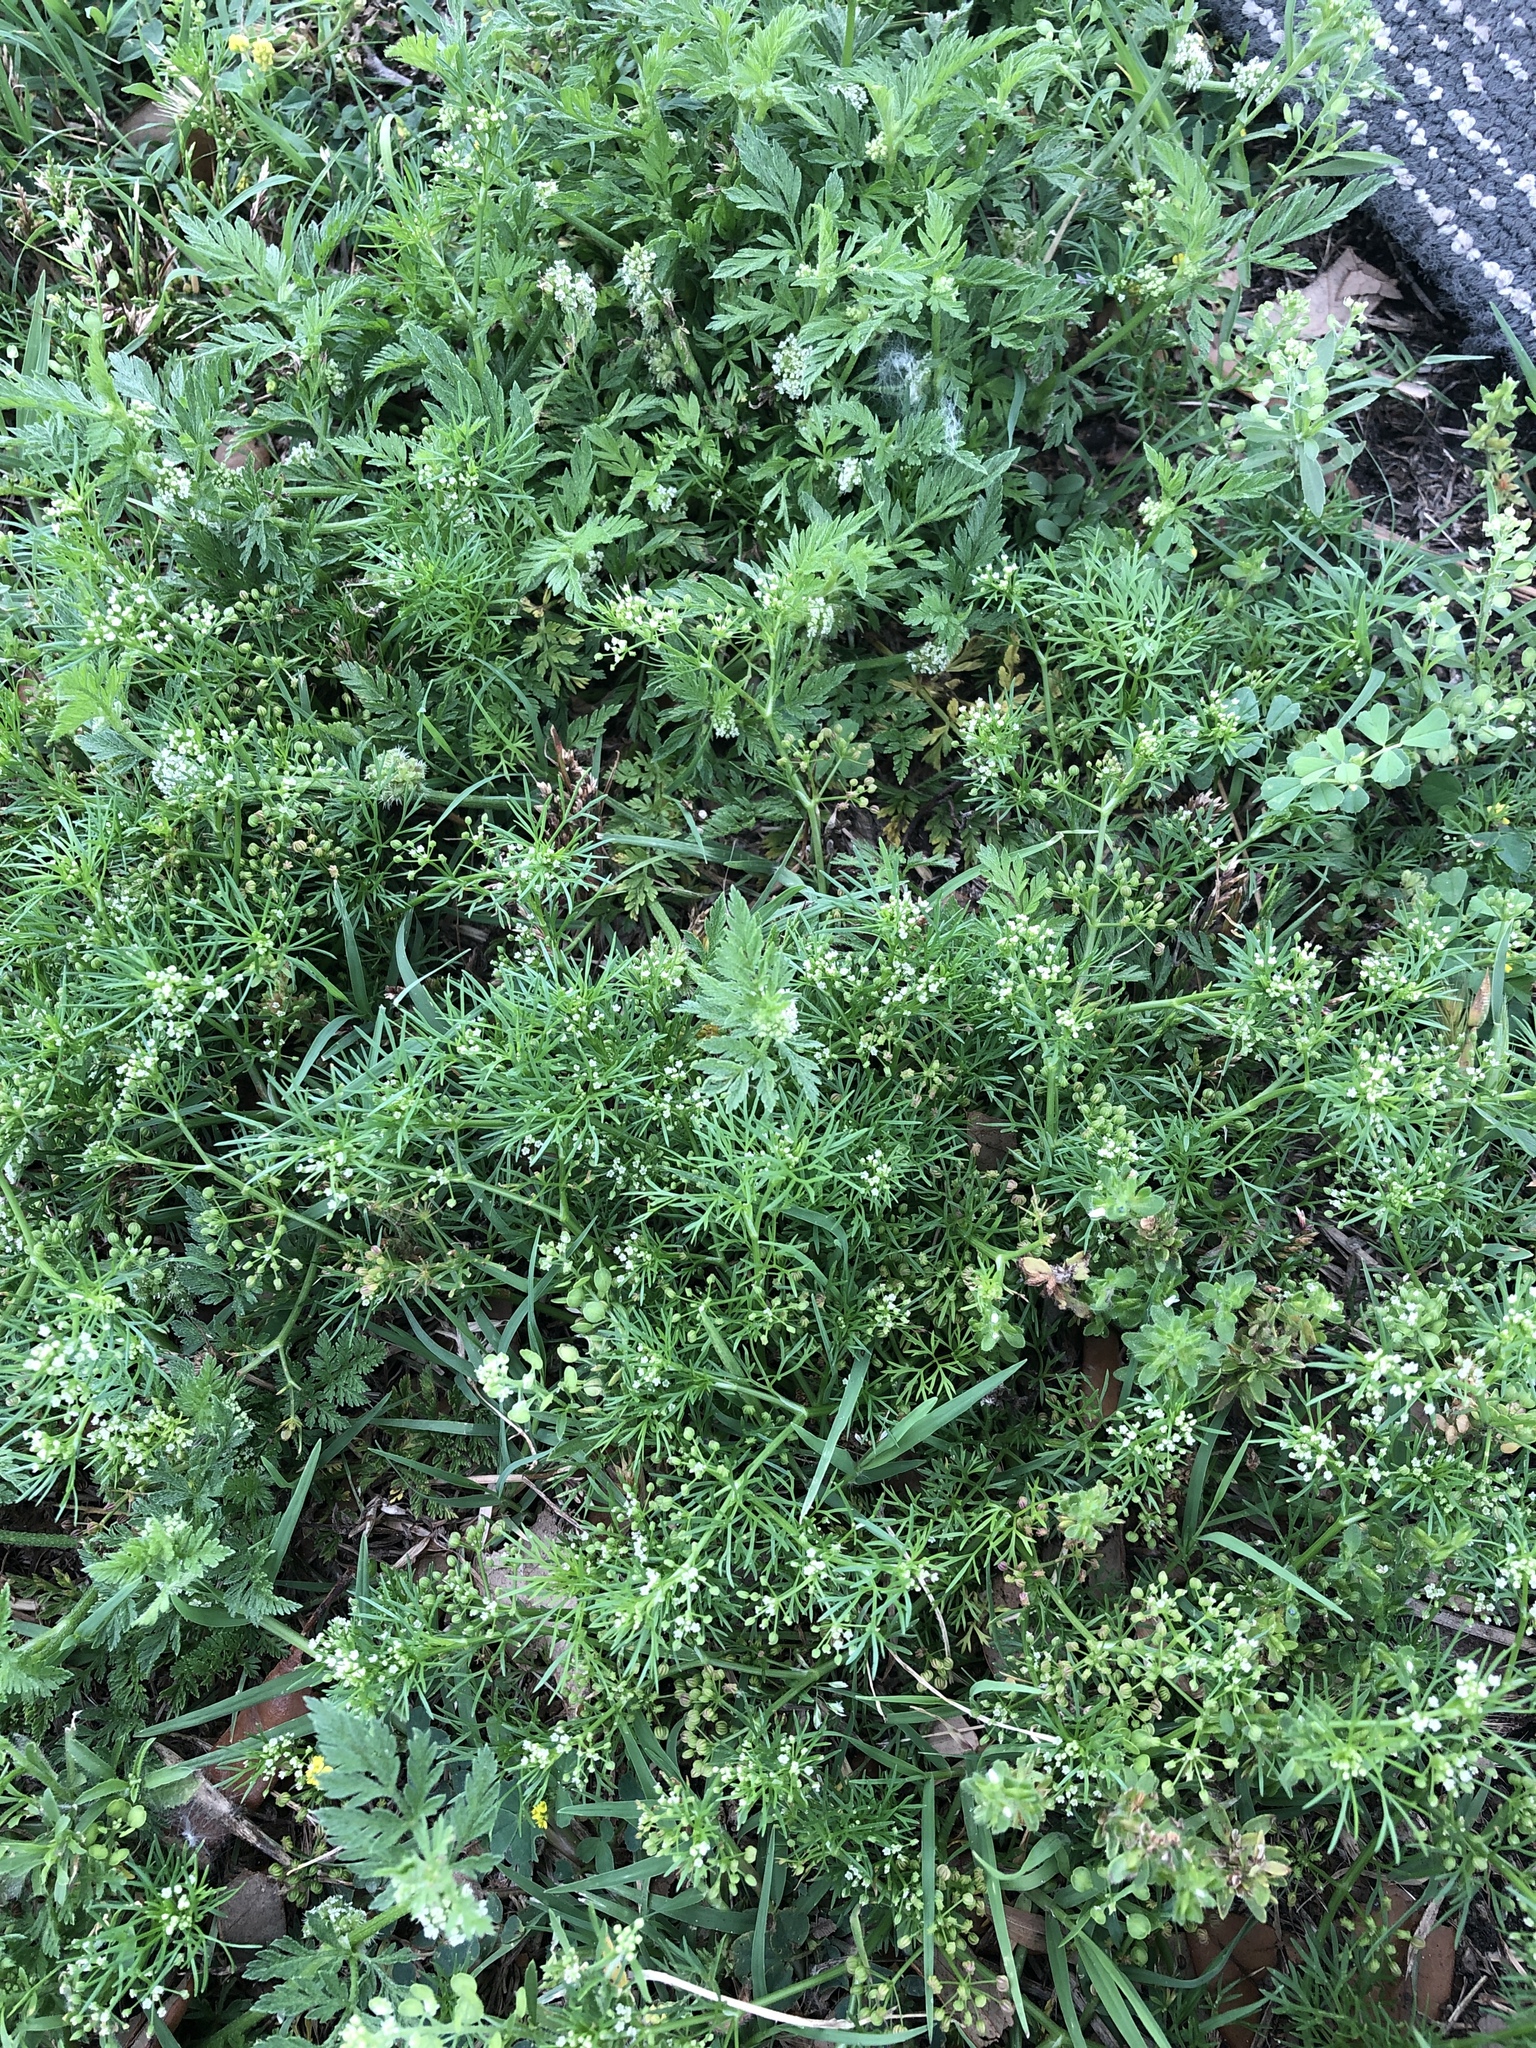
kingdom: Plantae
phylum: Tracheophyta
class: Magnoliopsida
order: Apiales
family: Apiaceae
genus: Cyclospermum
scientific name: Cyclospermum leptophyllum
